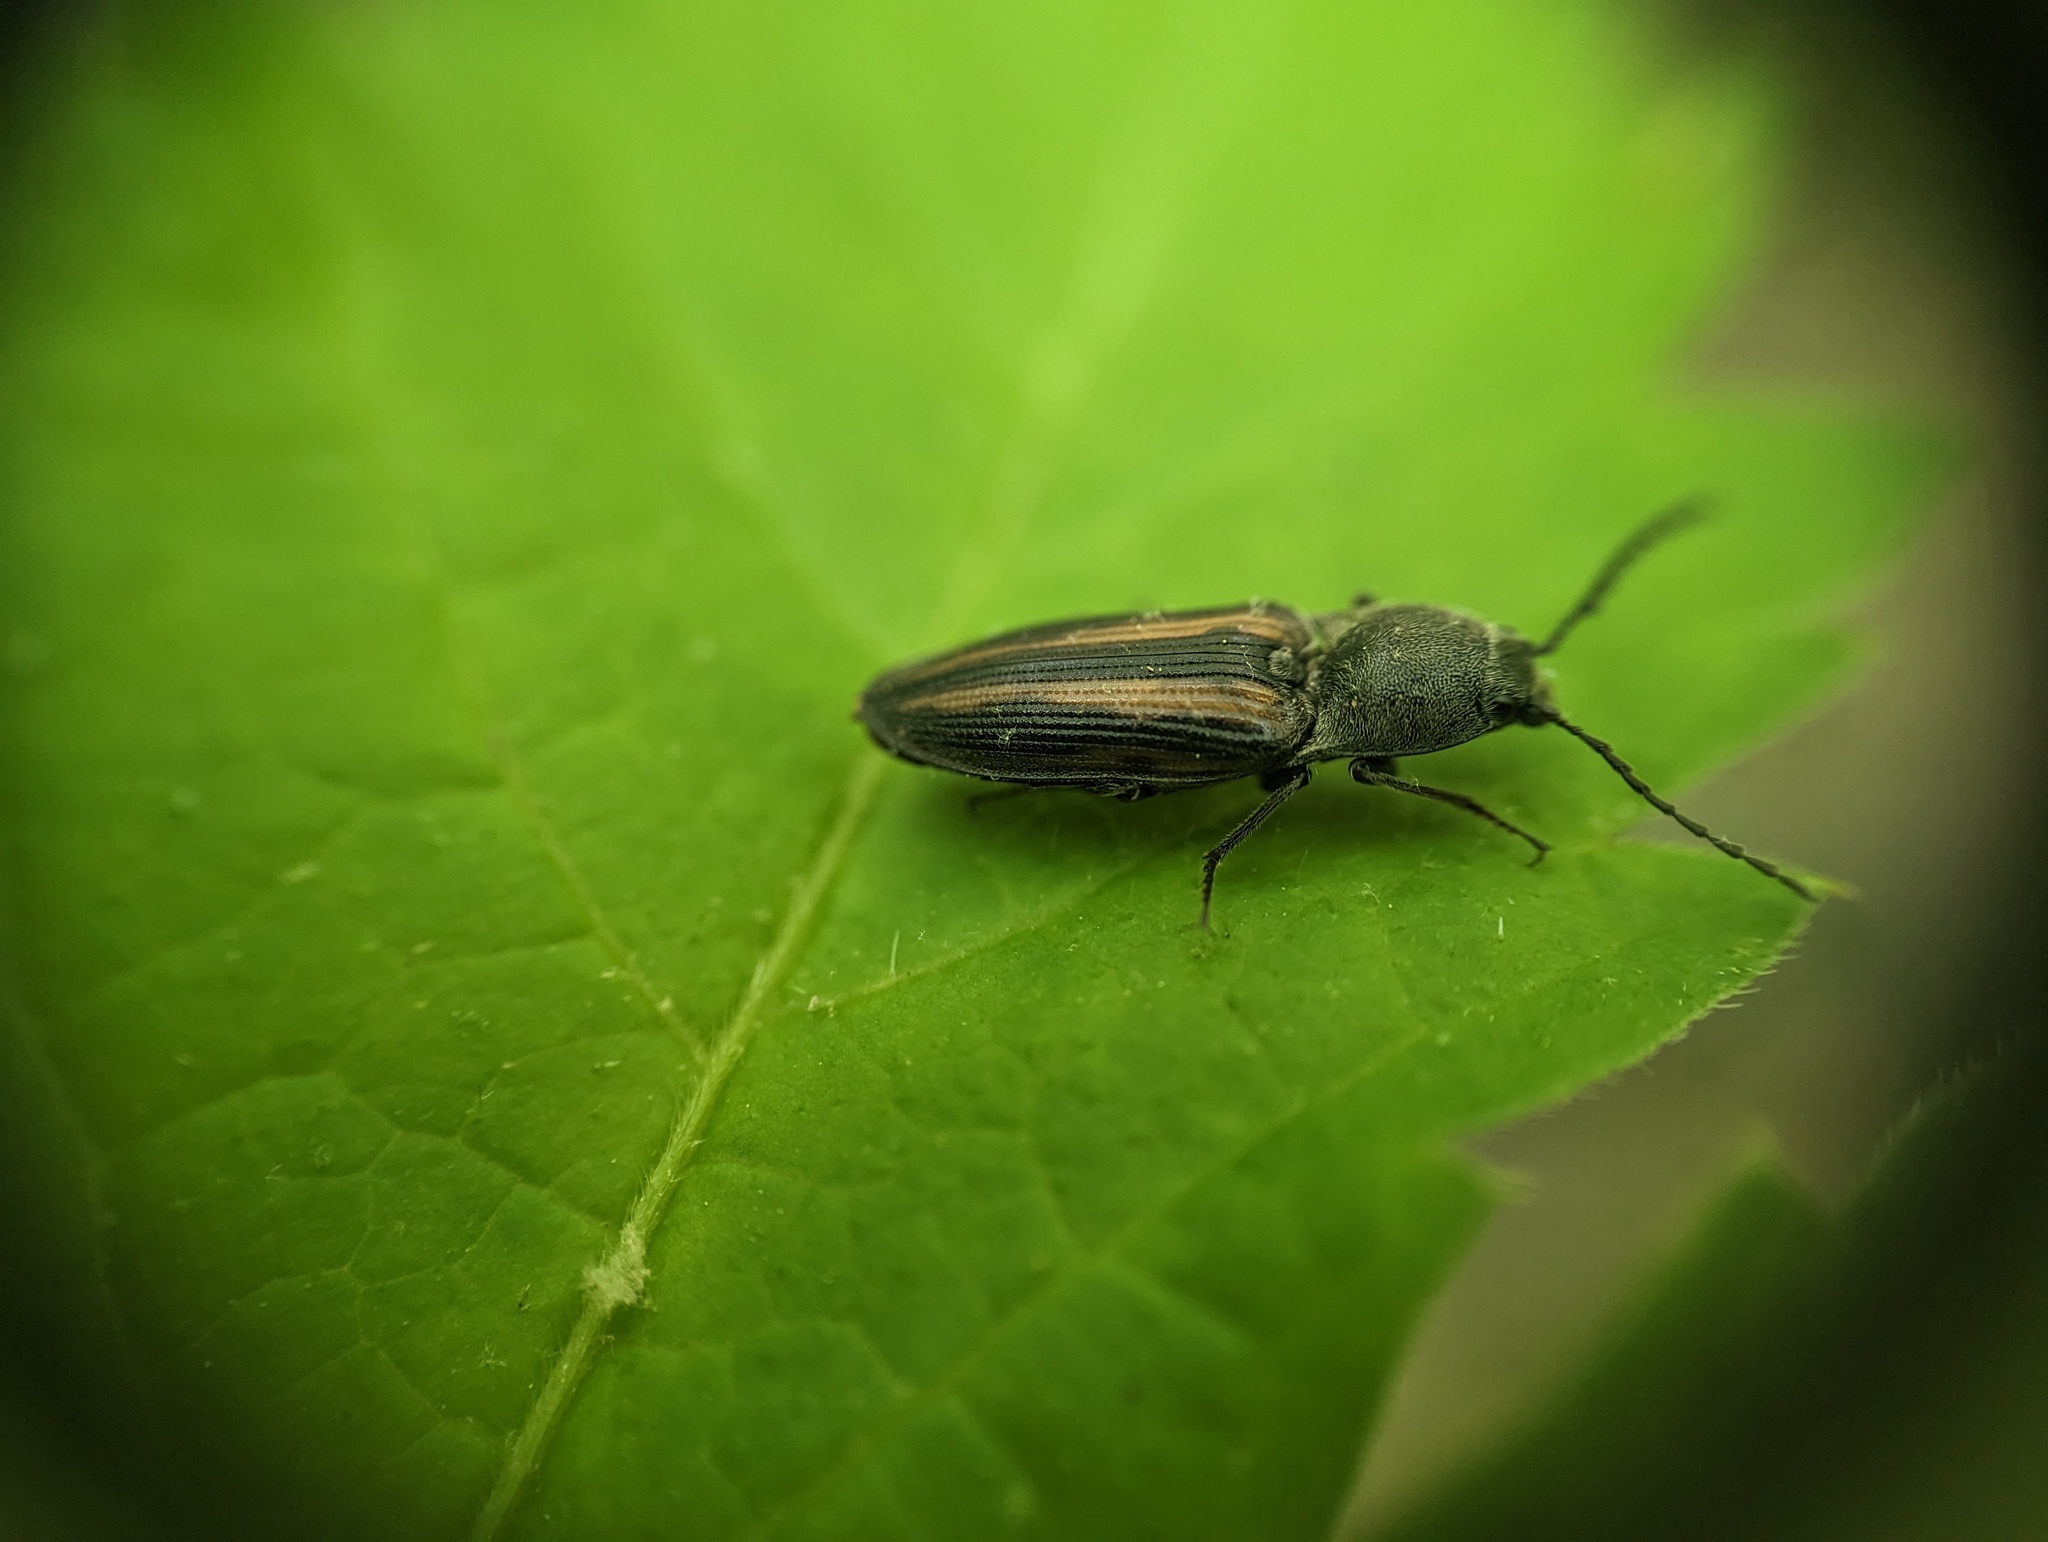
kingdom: Animalia
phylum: Arthropoda
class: Insecta
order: Coleoptera
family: Elateridae
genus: Tesolasomus
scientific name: Tesolasomus
